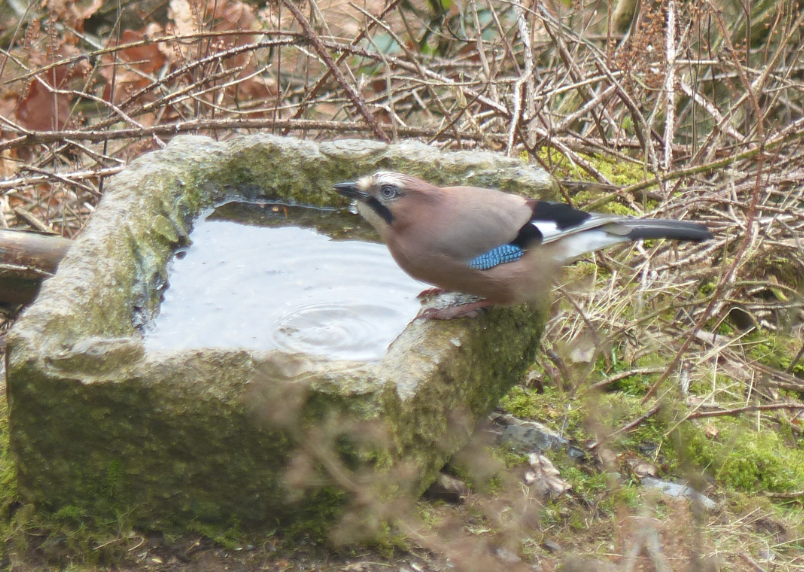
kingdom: Animalia
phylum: Chordata
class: Aves
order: Passeriformes
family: Corvidae
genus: Garrulus
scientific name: Garrulus glandarius
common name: Eurasian jay
